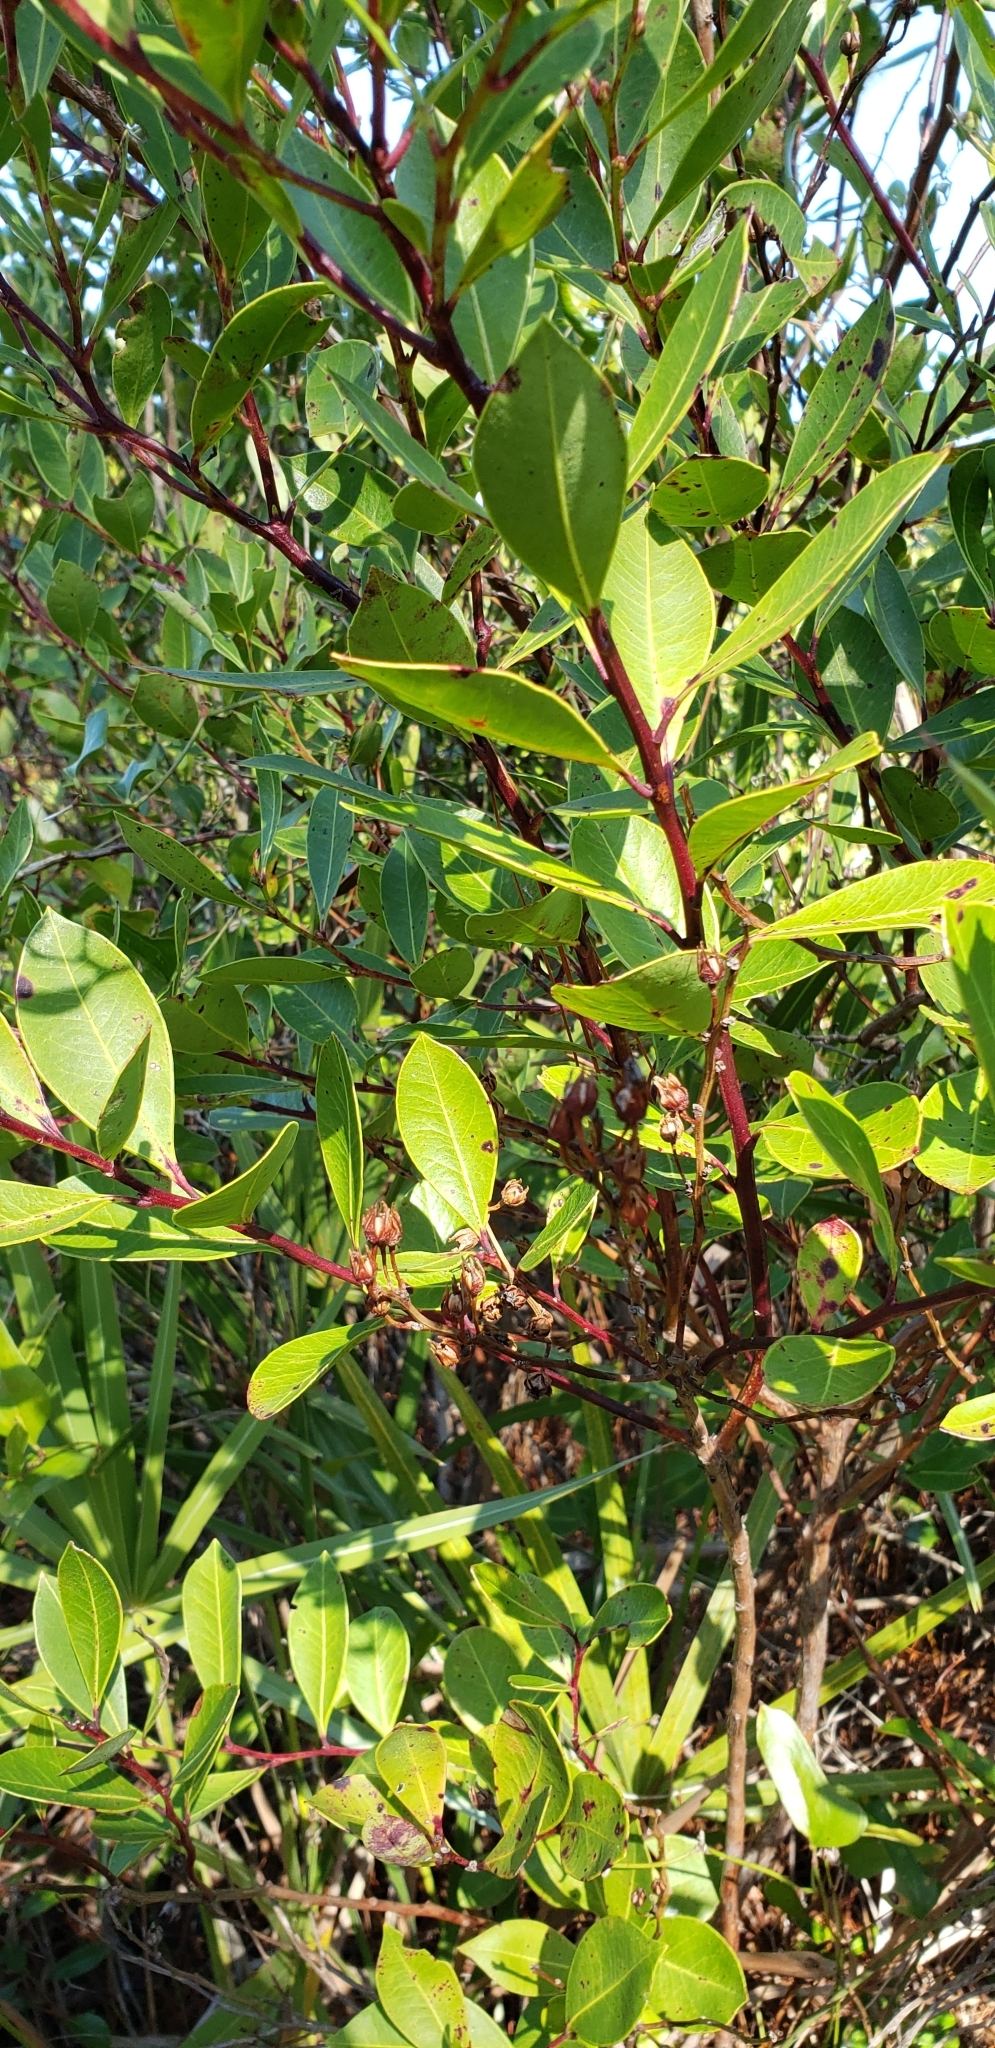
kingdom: Plantae
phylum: Tracheophyta
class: Magnoliopsida
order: Ericales
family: Ericaceae
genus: Lyonia
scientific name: Lyonia lucida
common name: Fetterbush
